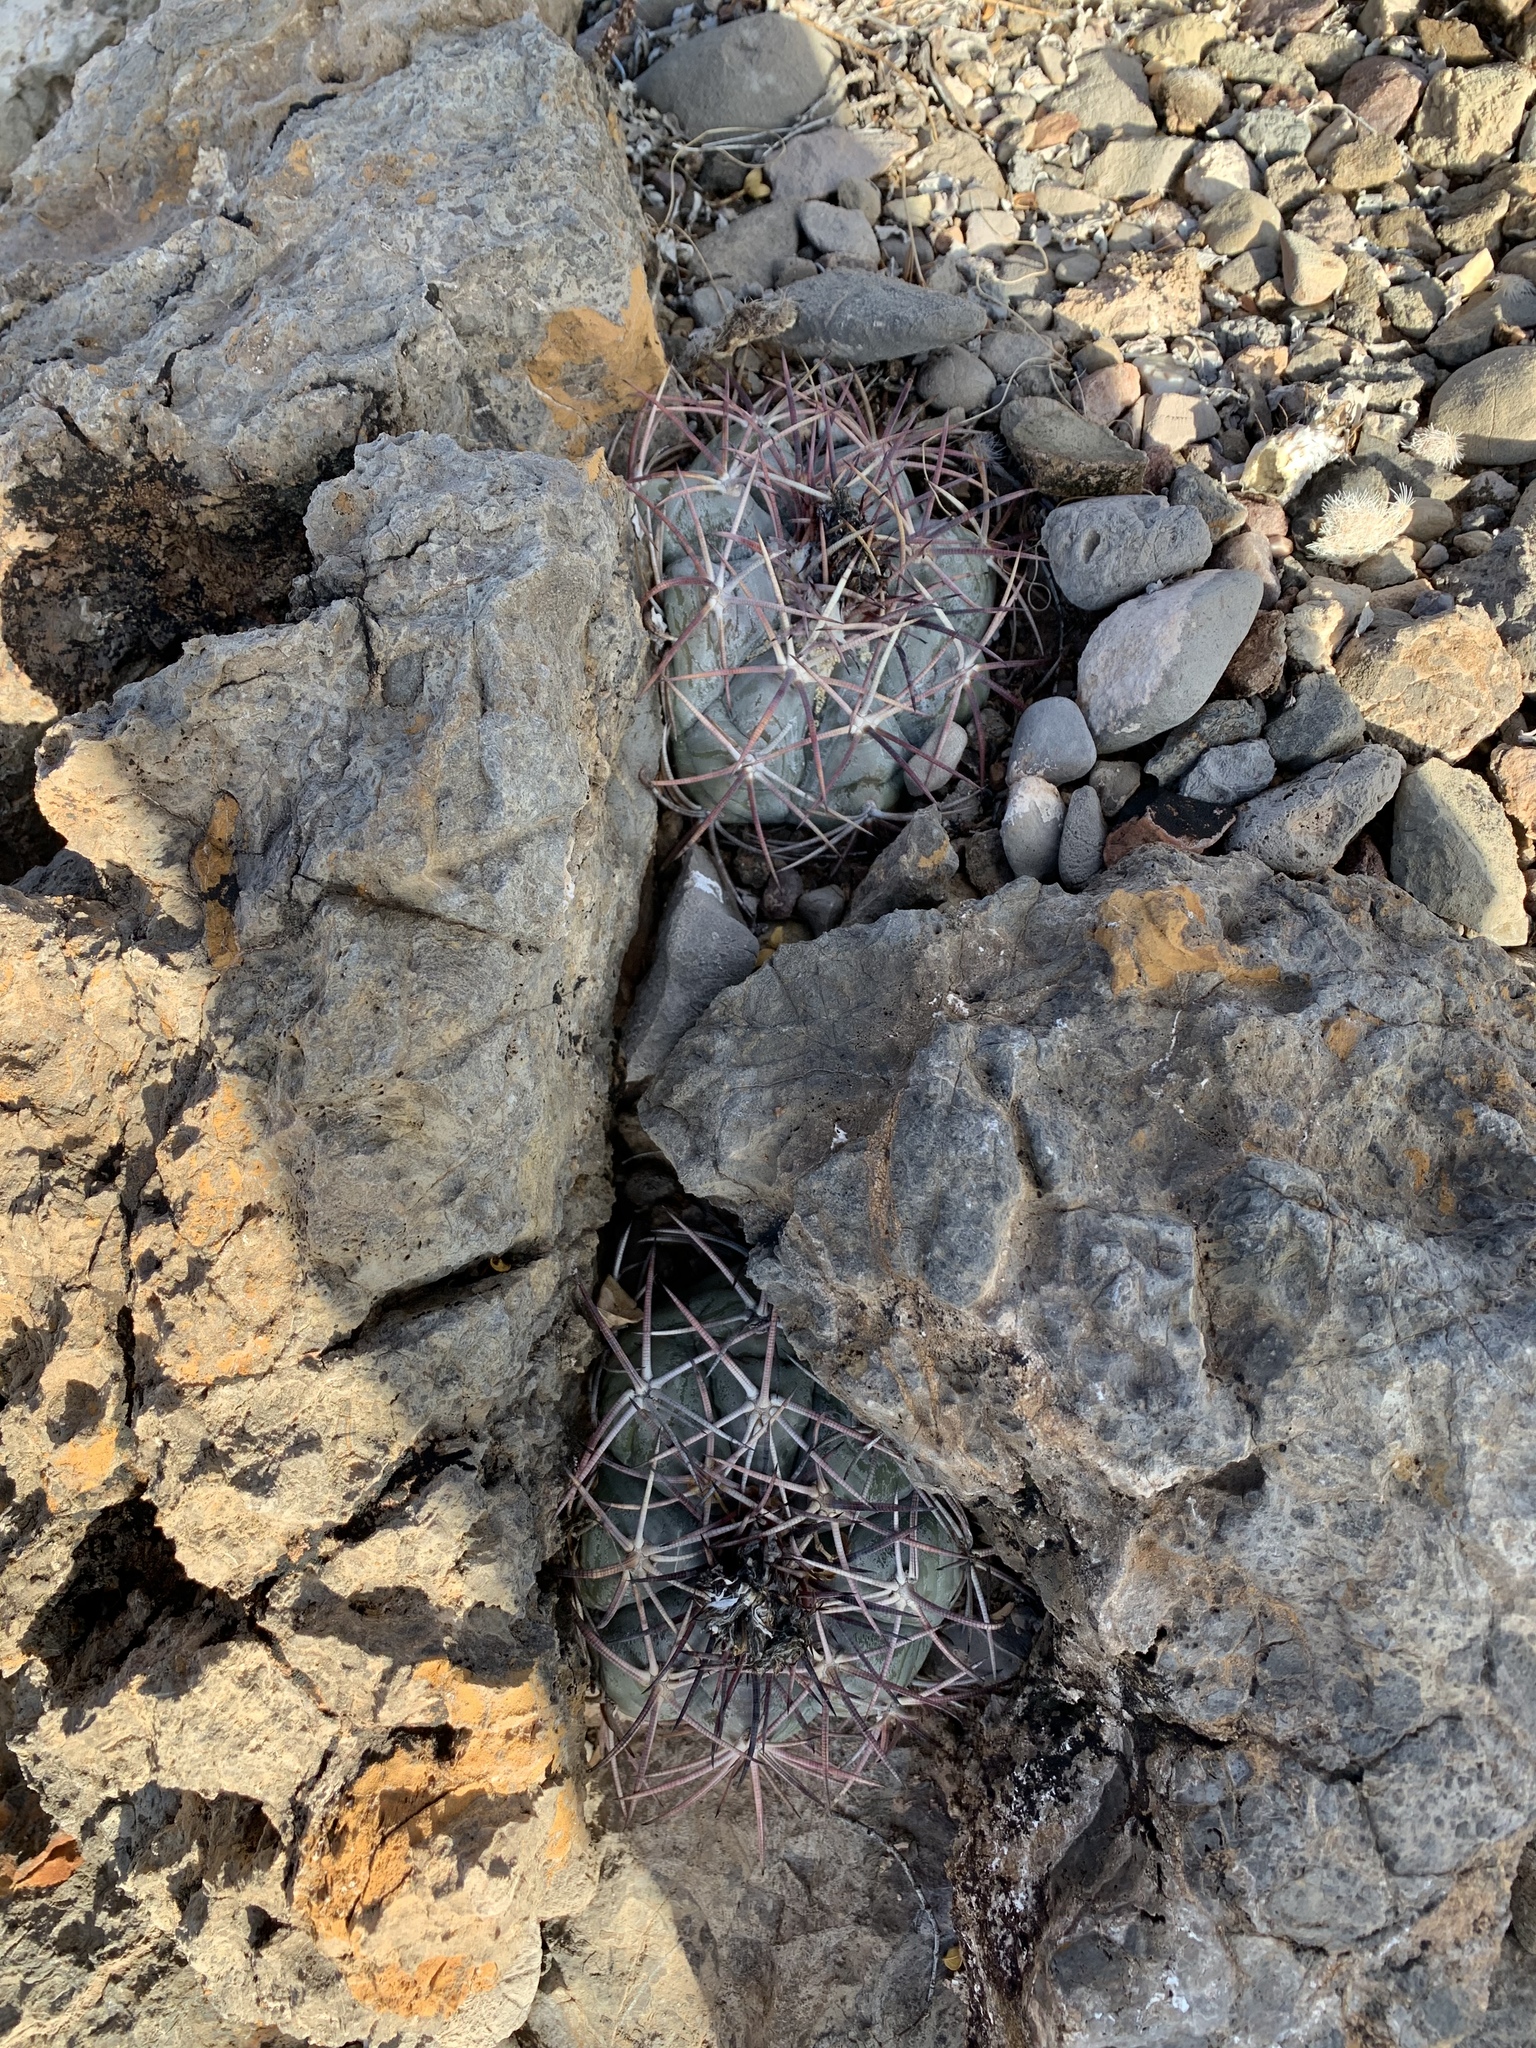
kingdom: Plantae
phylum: Tracheophyta
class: Magnoliopsida
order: Caryophyllales
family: Cactaceae
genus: Echinocactus
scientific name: Echinocactus horizonthalonius
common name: Devilshead
